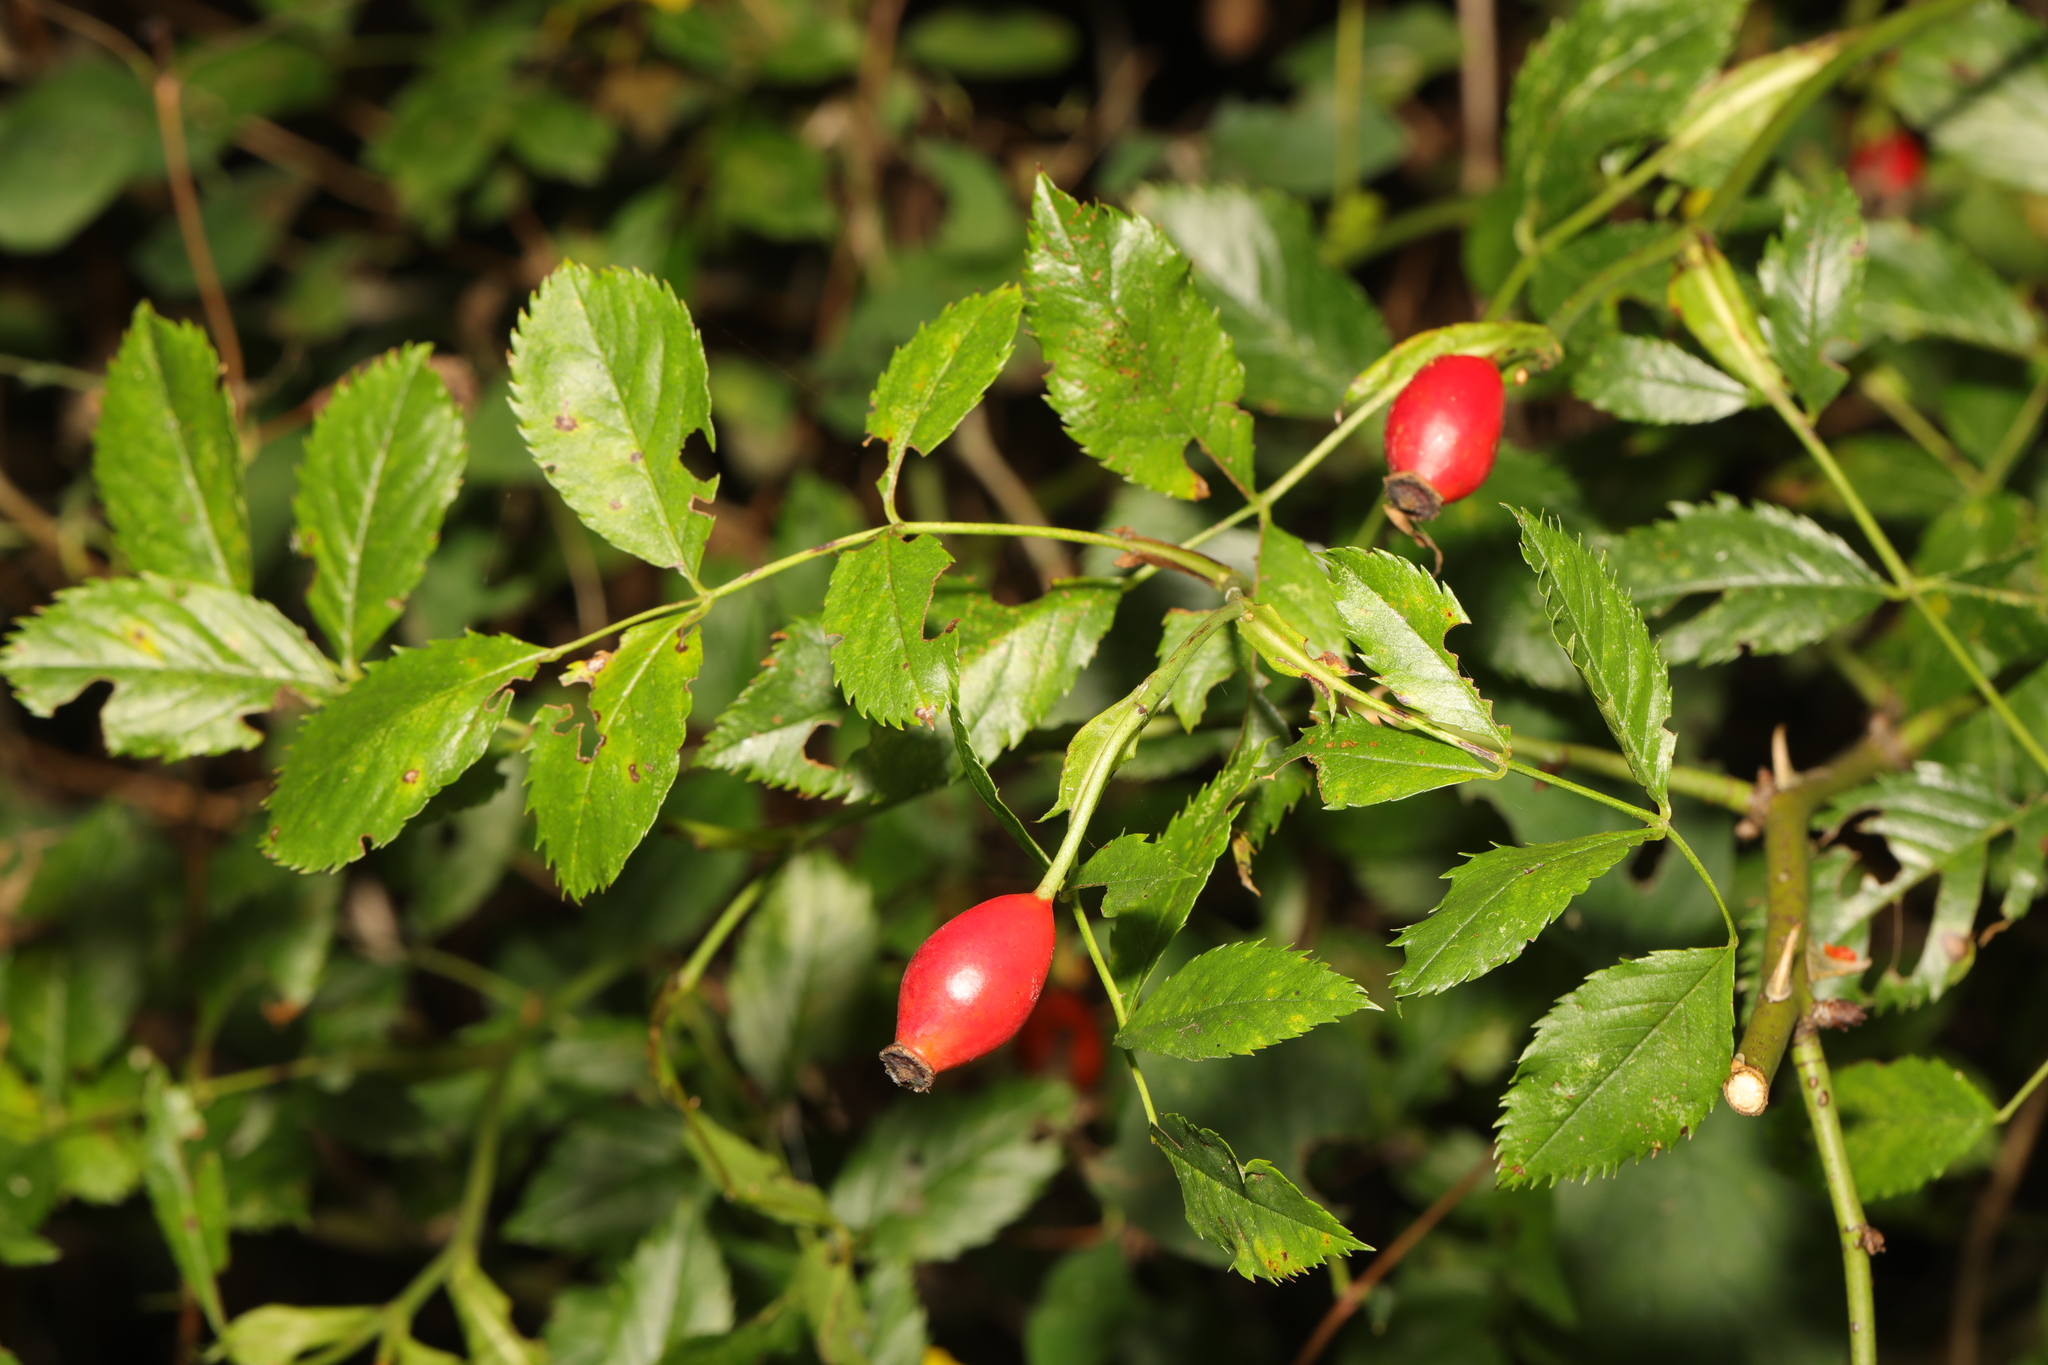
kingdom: Plantae
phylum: Tracheophyta
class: Magnoliopsida
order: Rosales
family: Rosaceae
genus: Rosa
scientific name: Rosa canina
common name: Dog rose
